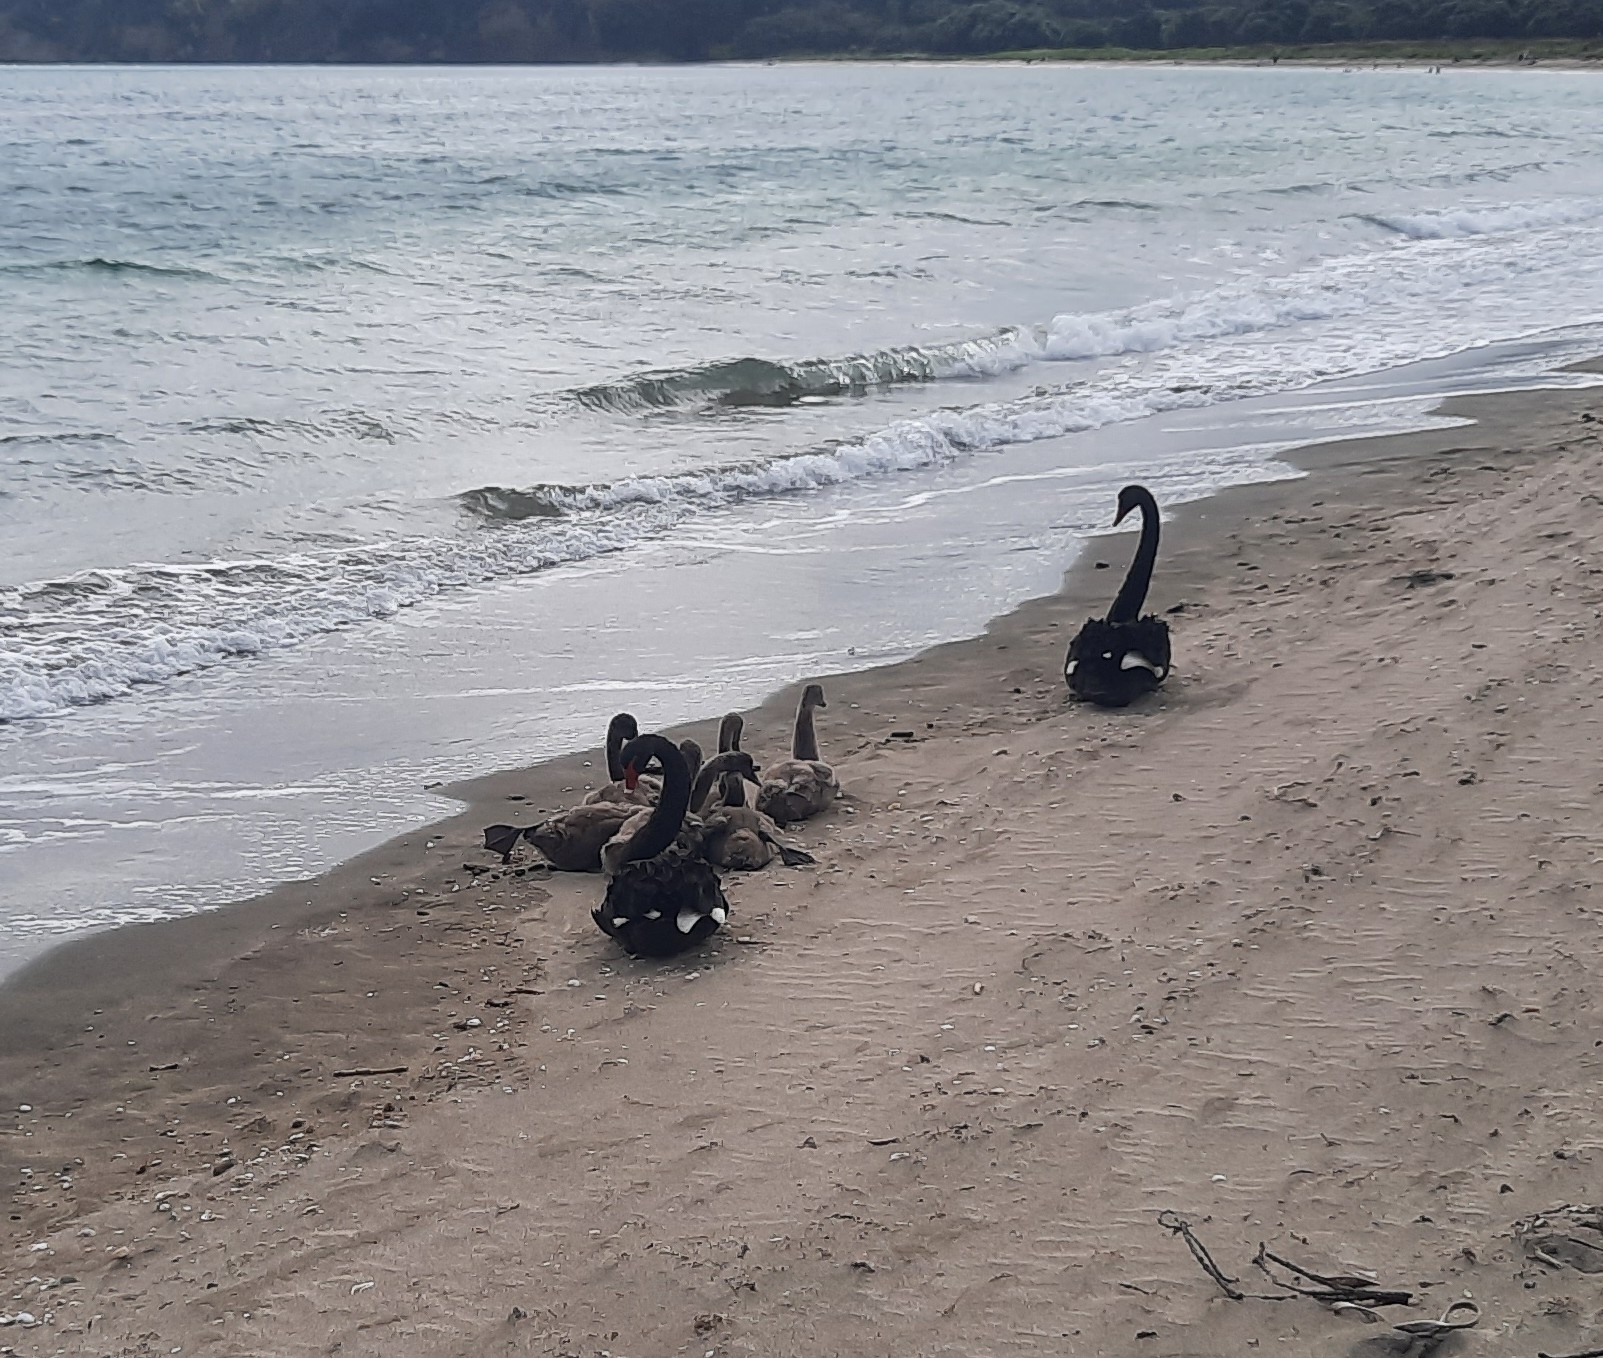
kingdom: Animalia
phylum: Chordata
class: Aves
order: Anseriformes
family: Anatidae
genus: Cygnus
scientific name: Cygnus atratus
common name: Black swan
